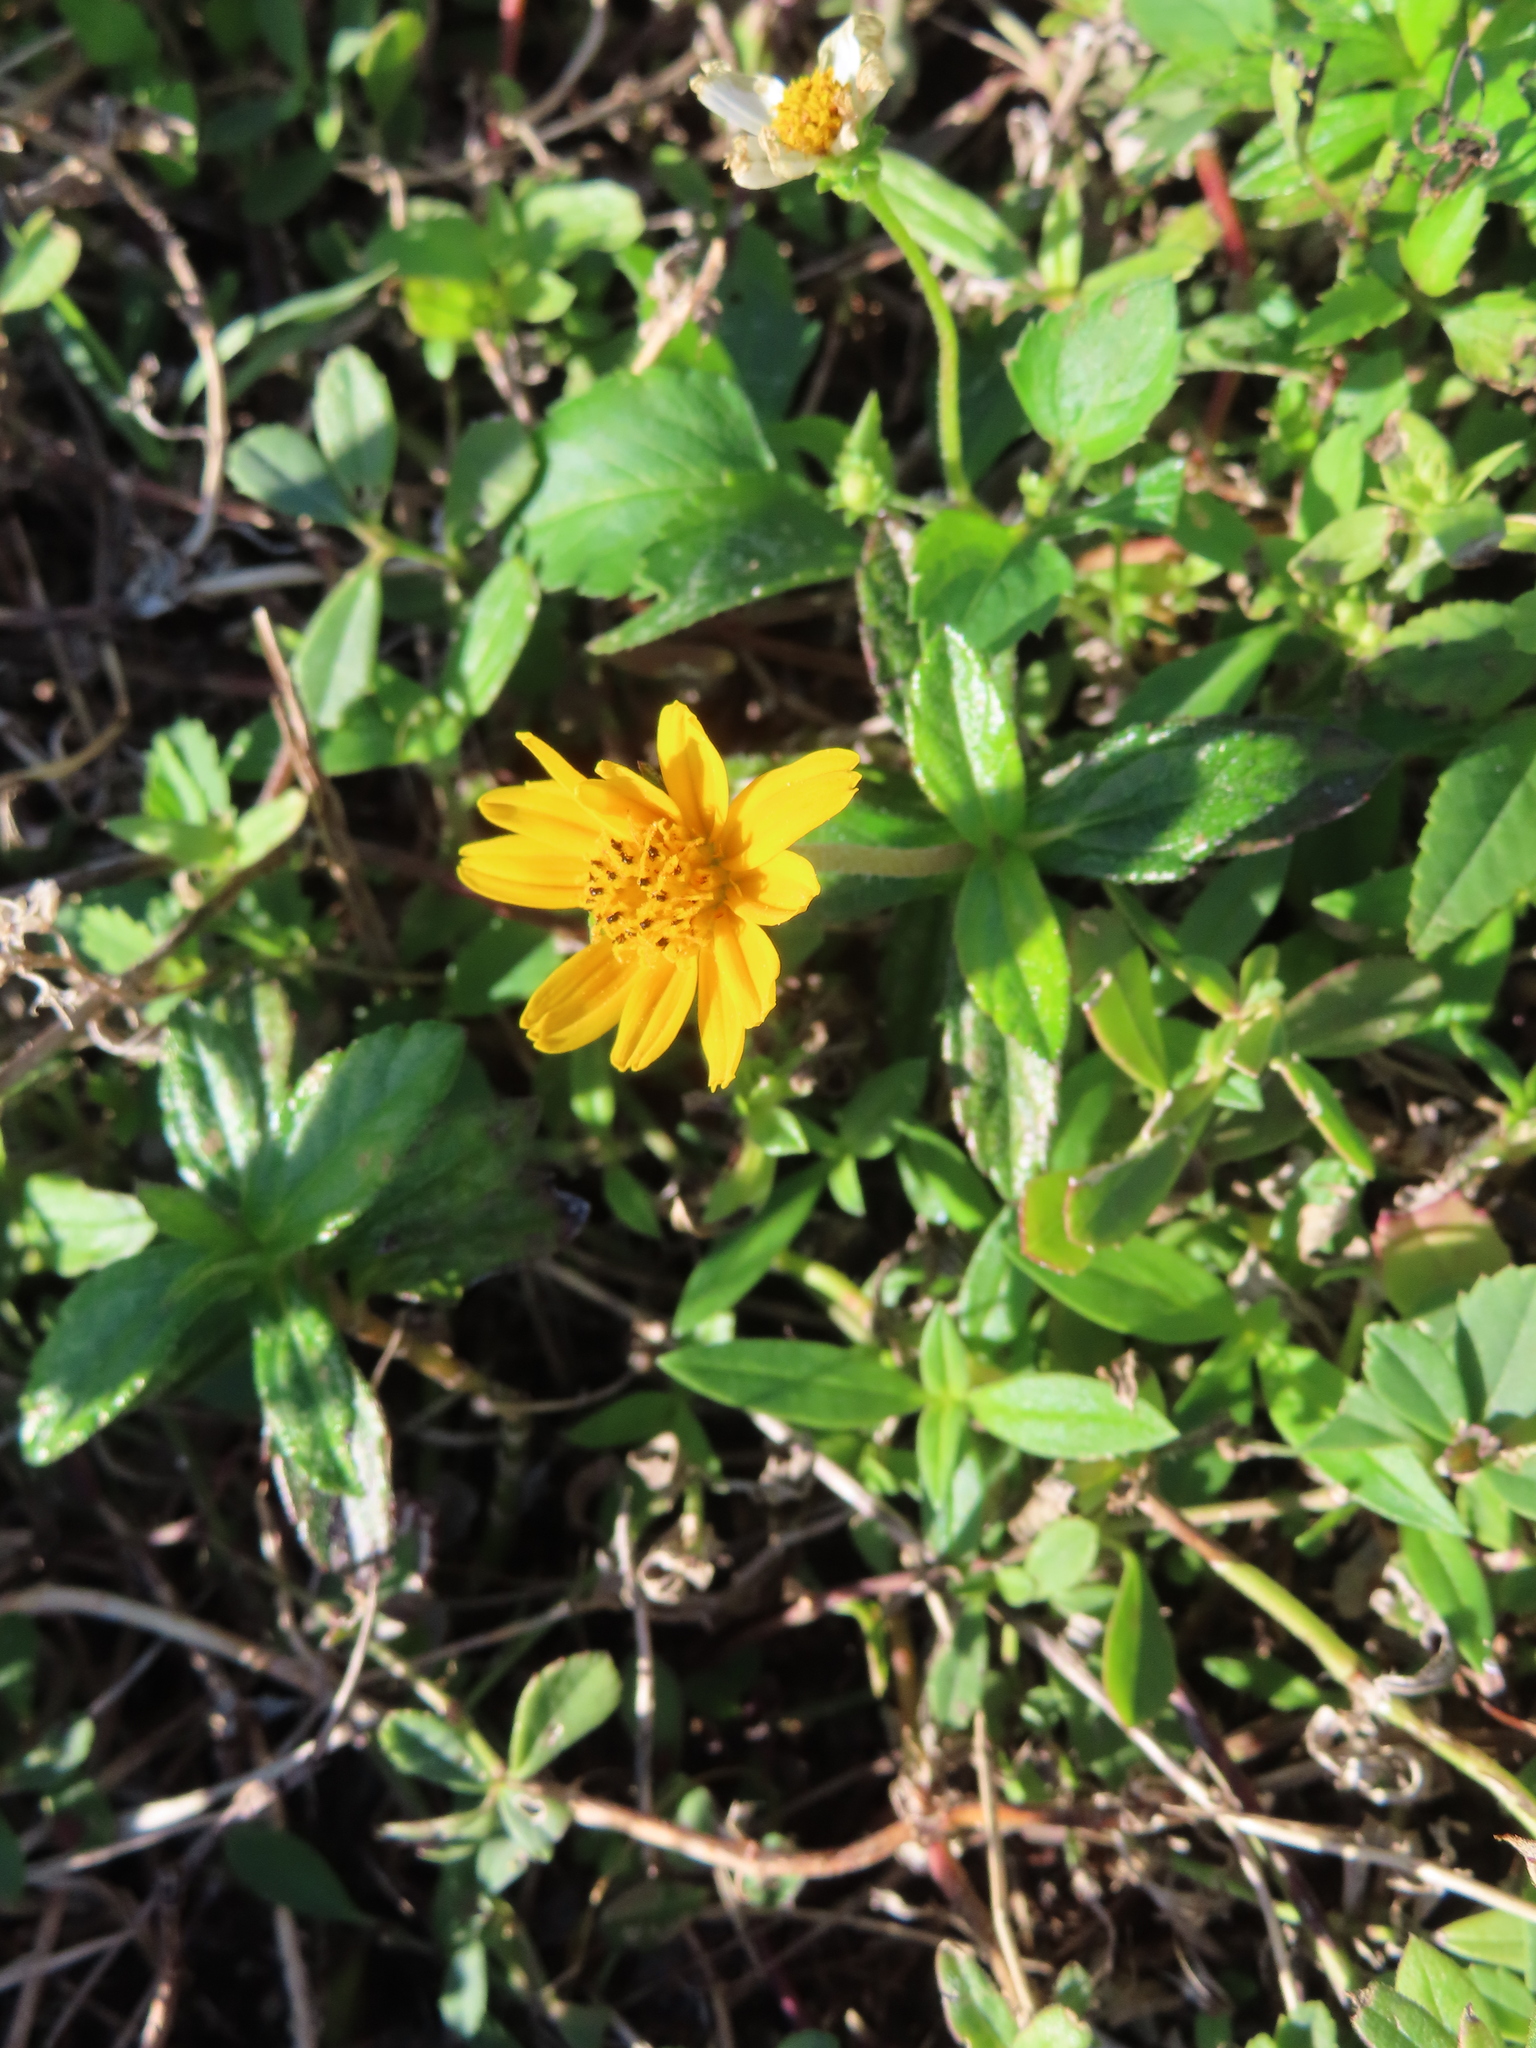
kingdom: Plantae
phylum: Tracheophyta
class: Magnoliopsida
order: Asterales
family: Asteraceae
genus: Sphagneticola
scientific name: Sphagneticola trilobata
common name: Bay biscayne creeping-oxeye
